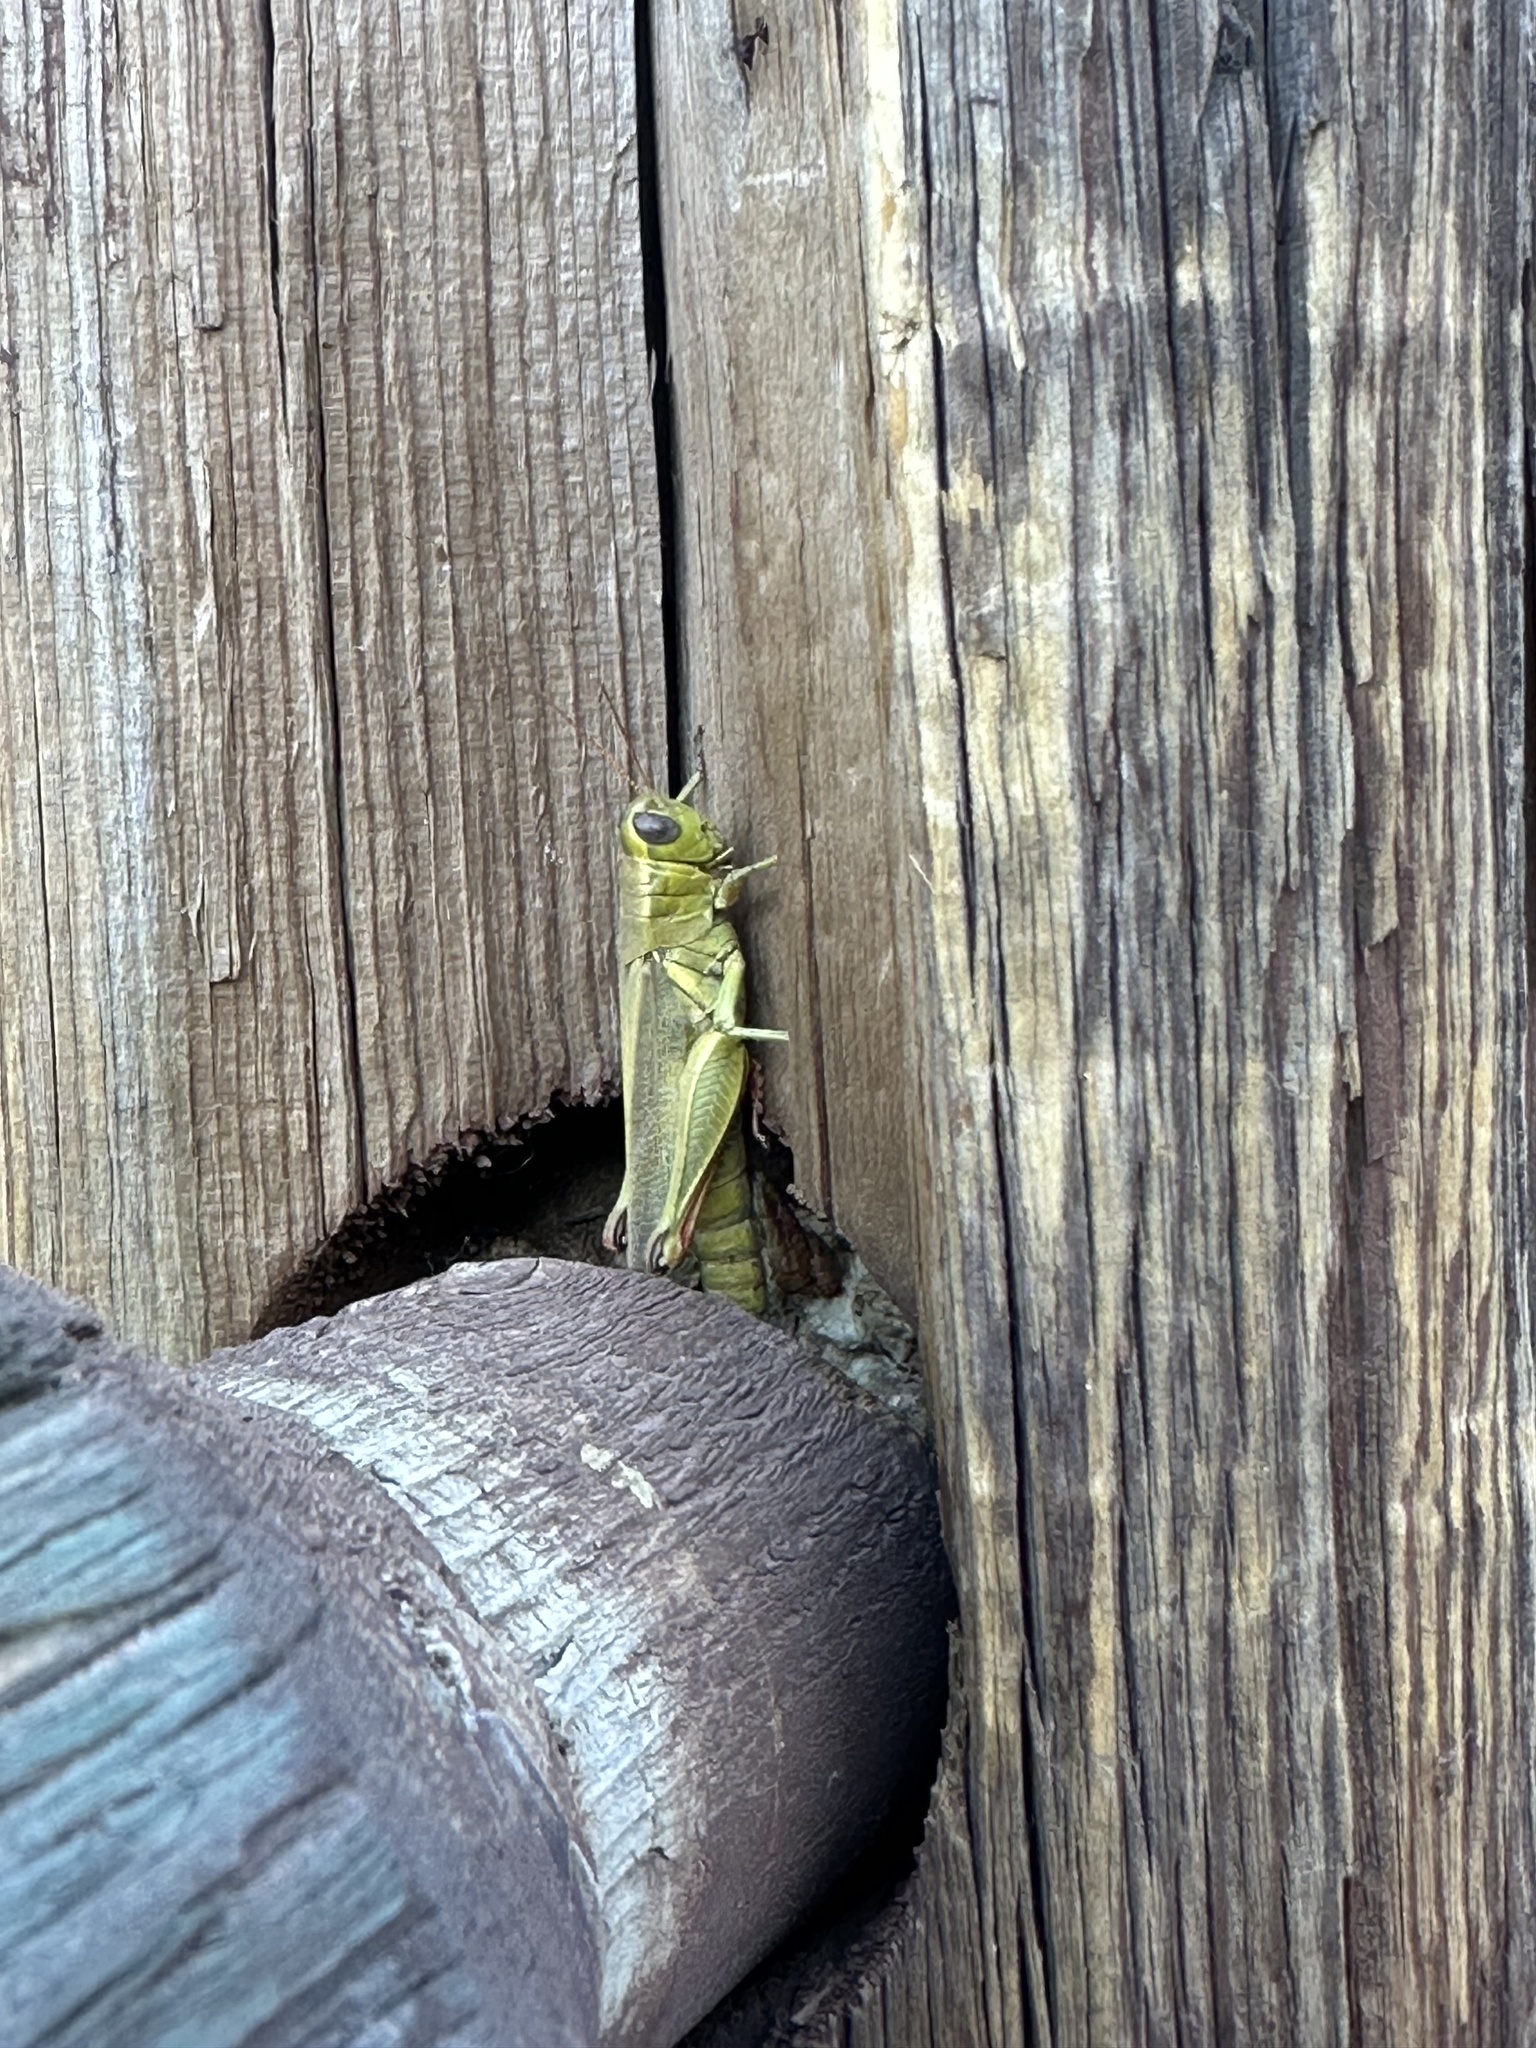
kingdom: Animalia
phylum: Arthropoda
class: Insecta
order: Orthoptera
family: Acrididae
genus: Melanoplus
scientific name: Melanoplus yarrowii
